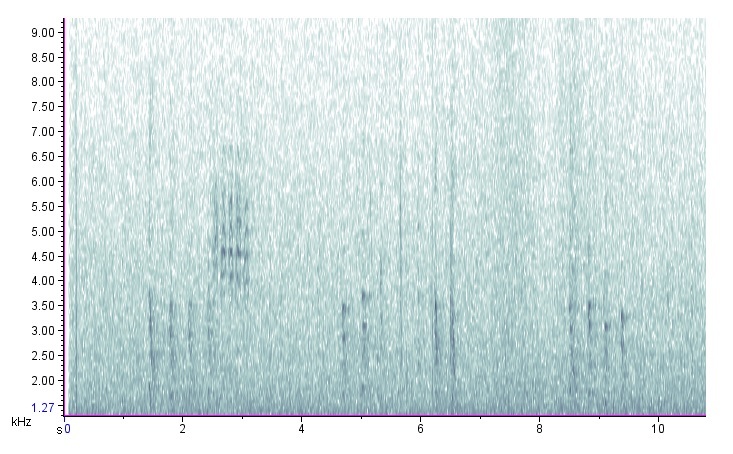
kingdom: Animalia
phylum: Chordata
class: Aves
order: Piciformes
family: Picidae
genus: Melanerpes
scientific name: Melanerpes carolinus
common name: Red-bellied woodpecker
